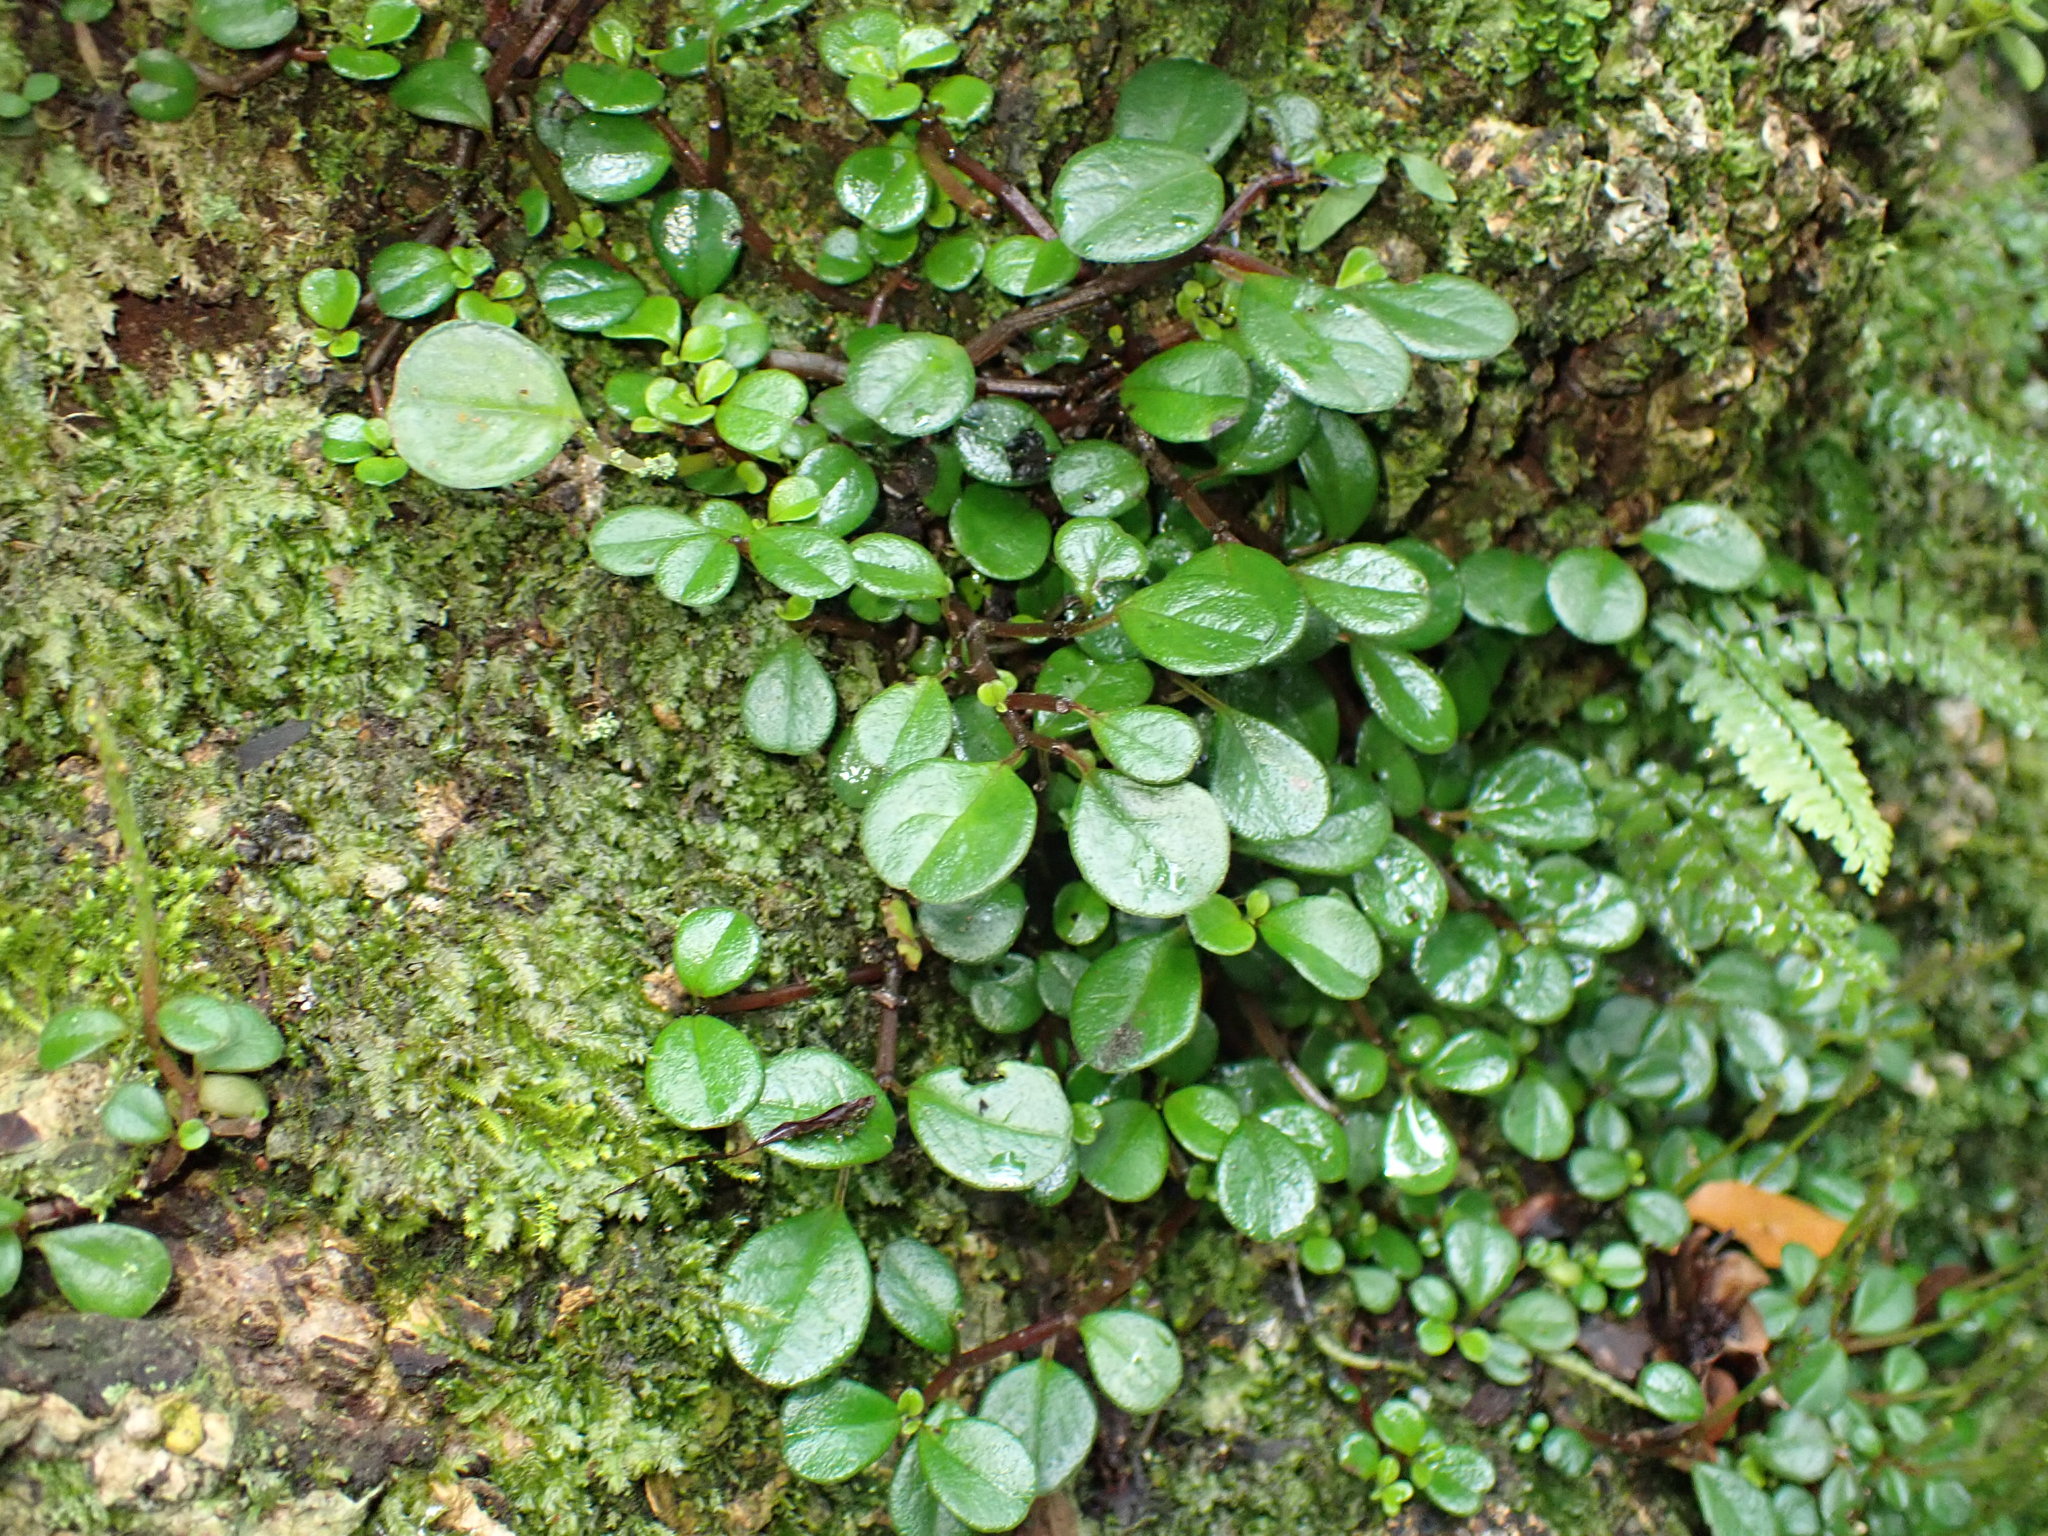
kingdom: Plantae
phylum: Tracheophyta
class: Magnoliopsida
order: Piperales
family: Piperaceae
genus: Peperomia
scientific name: Peperomia retusa
